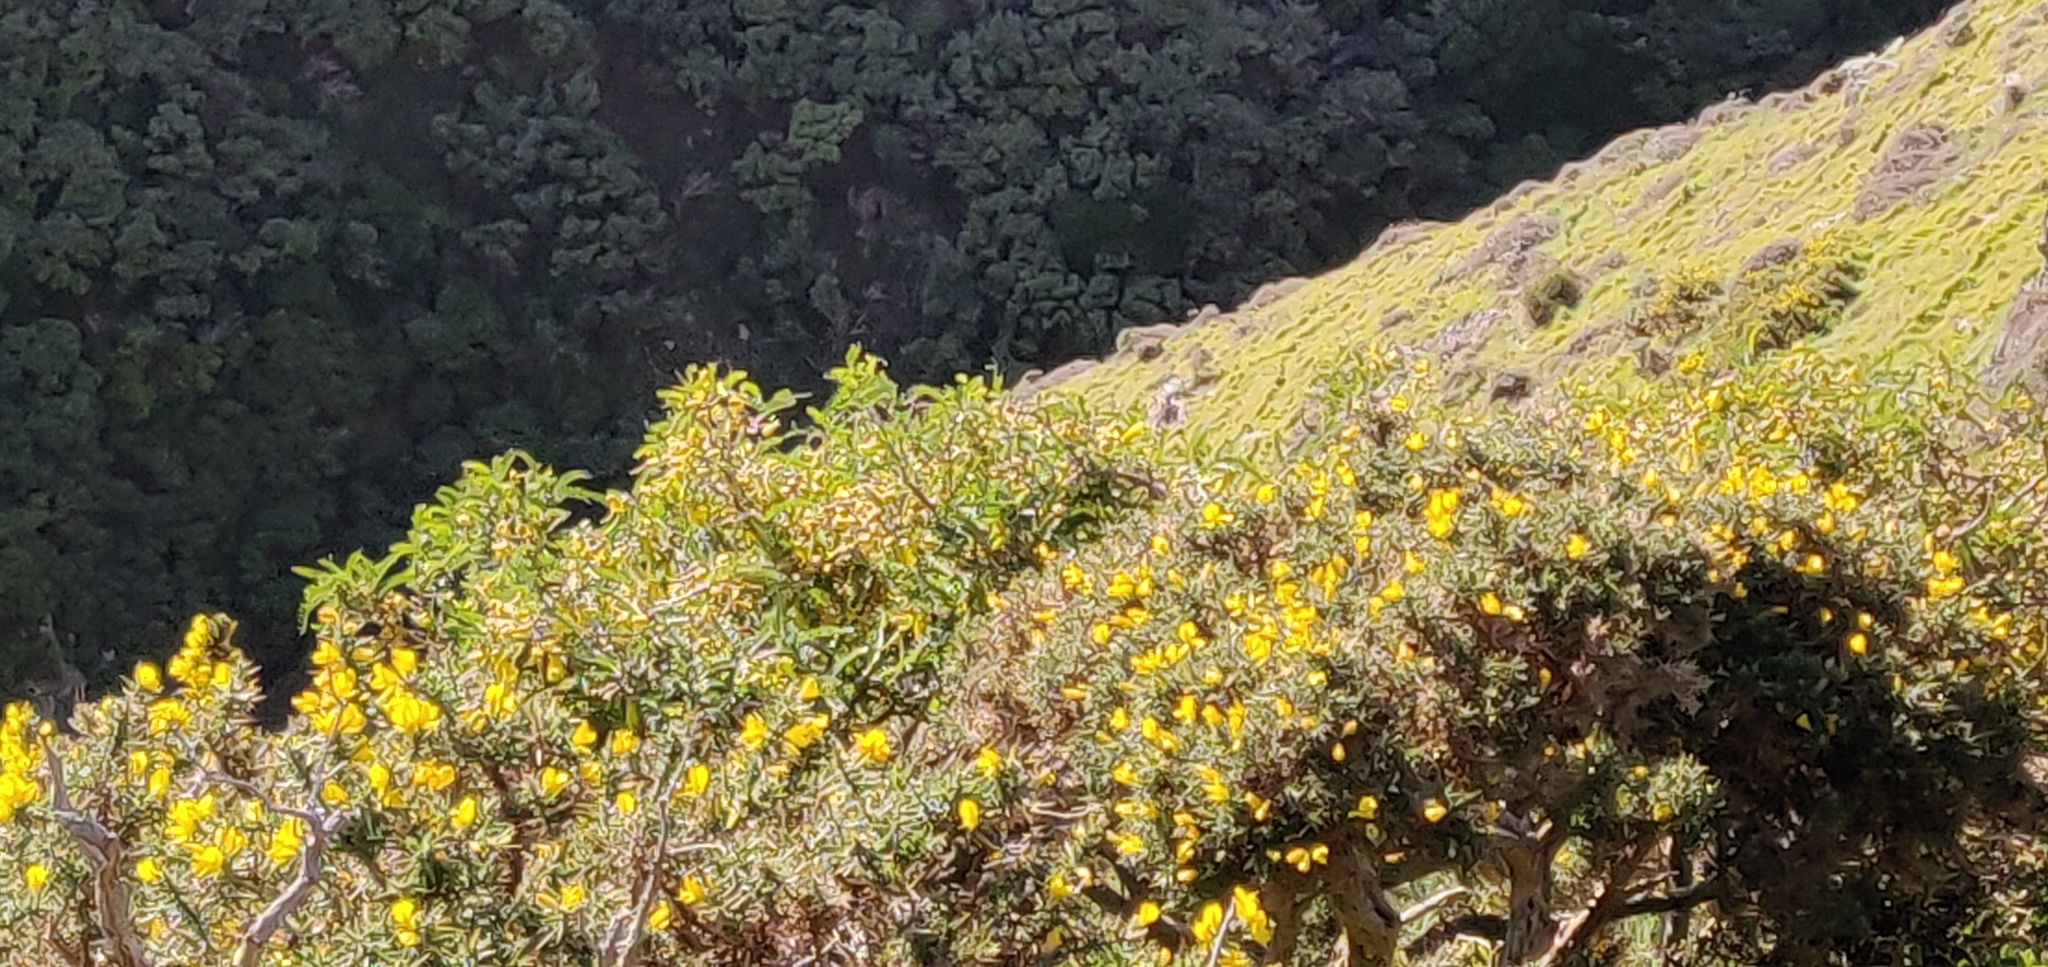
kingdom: Plantae
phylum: Tracheophyta
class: Magnoliopsida
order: Fabales
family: Fabaceae
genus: Sophora
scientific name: Sophora molloyi
